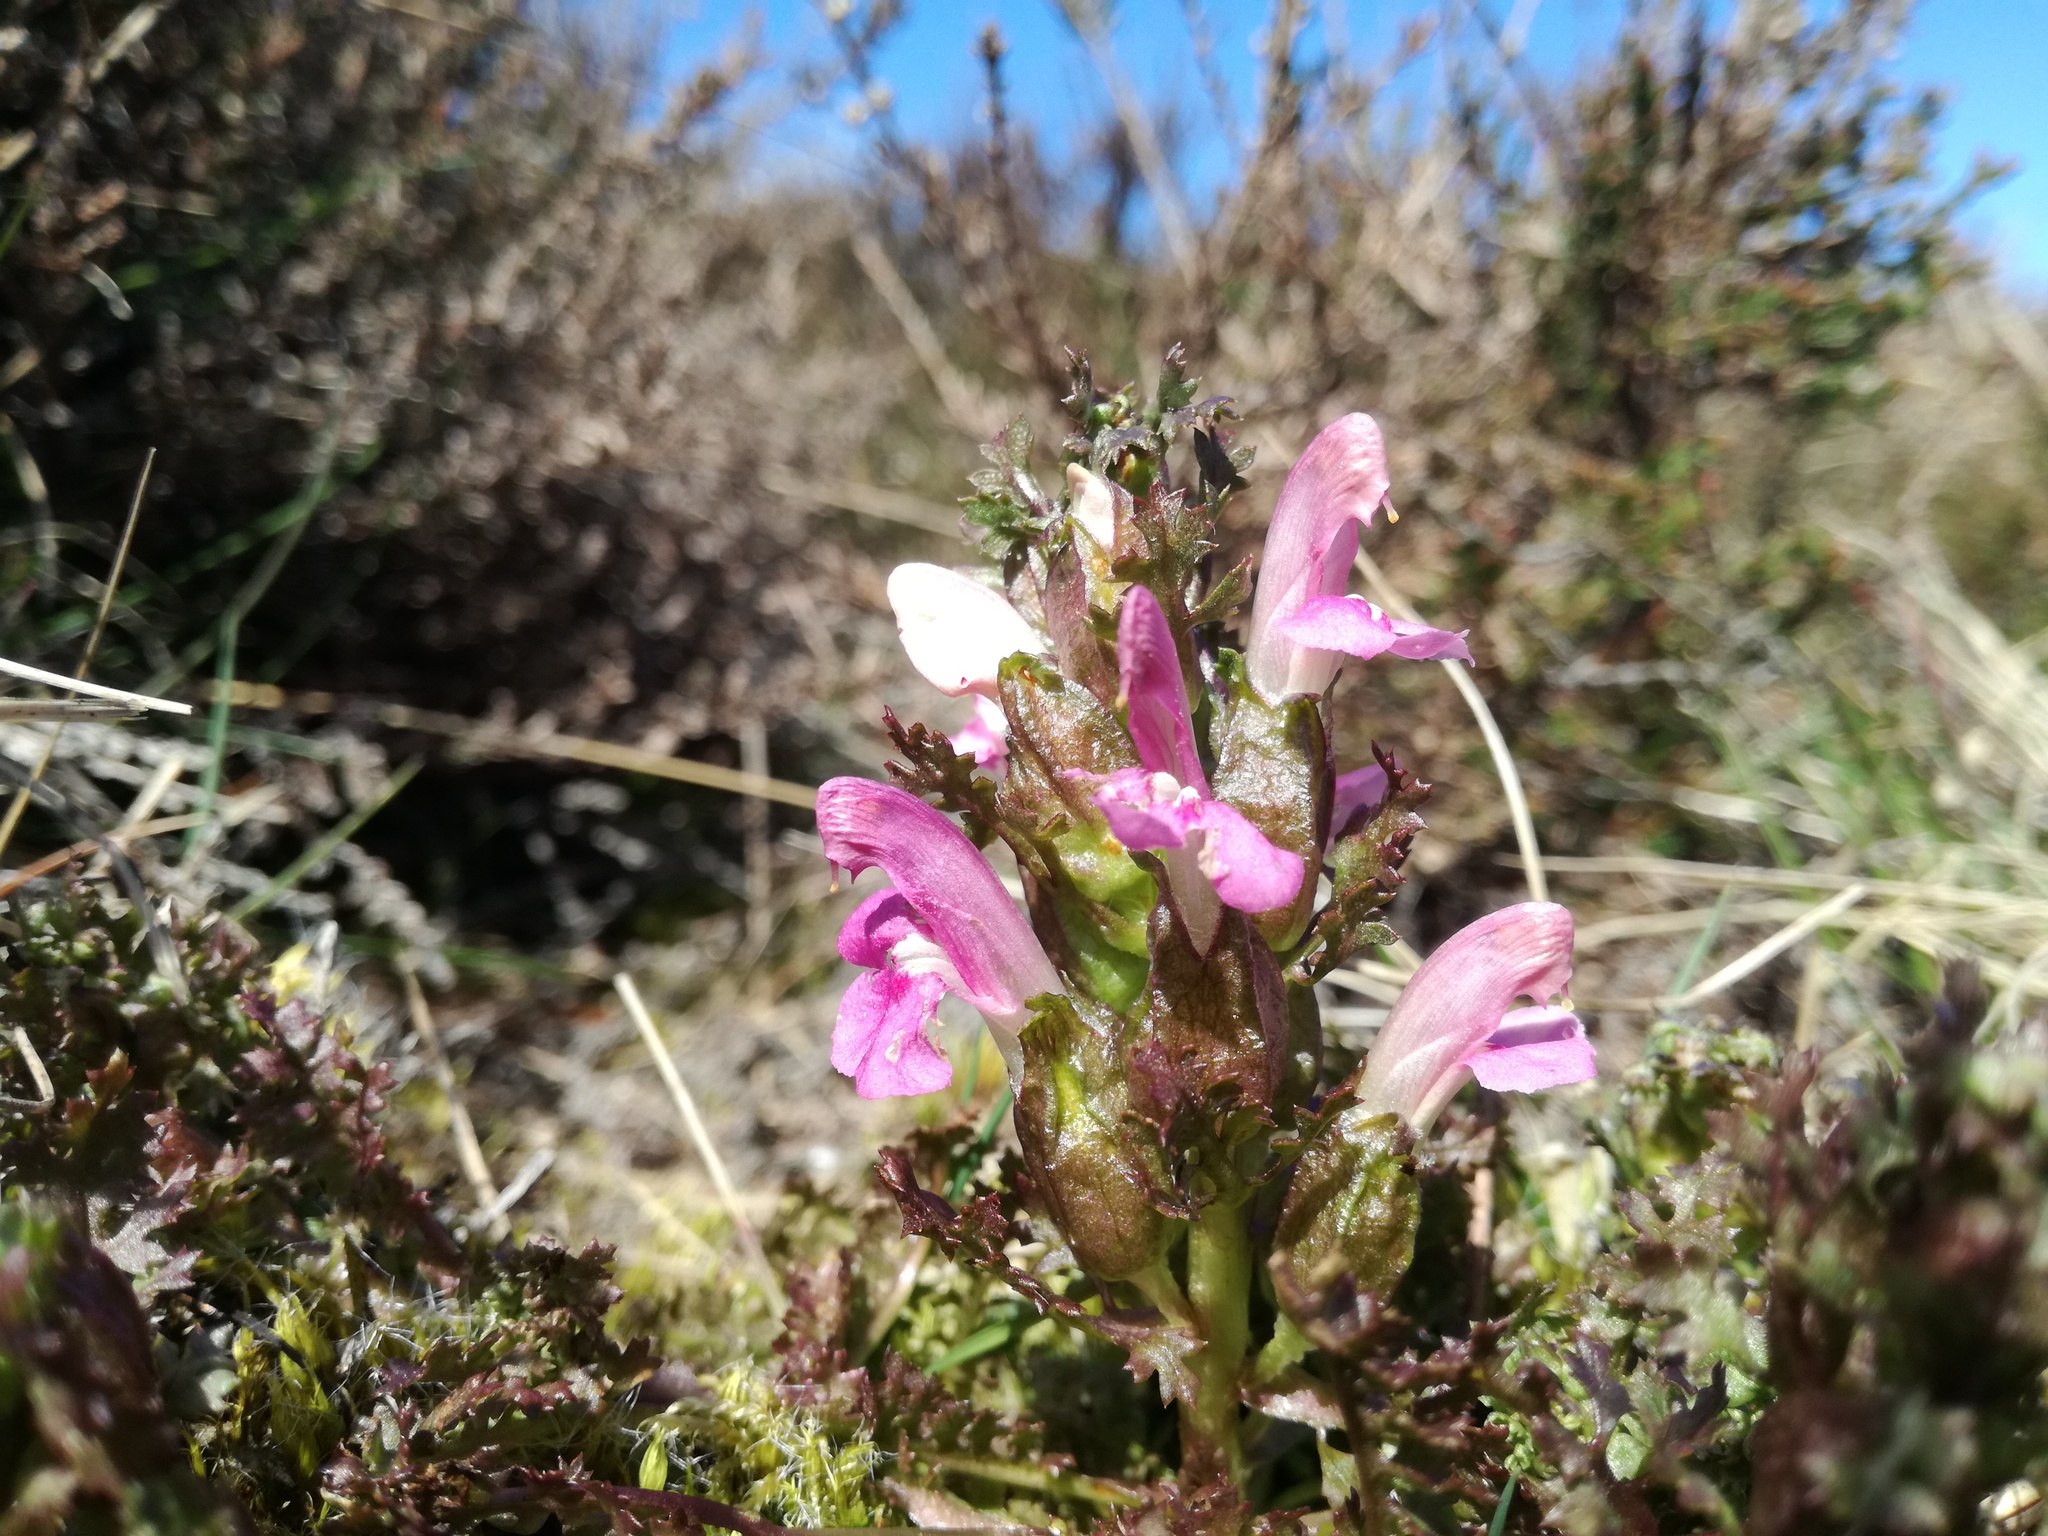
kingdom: Plantae
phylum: Tracheophyta
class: Magnoliopsida
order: Lamiales
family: Orobanchaceae
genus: Pedicularis
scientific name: Pedicularis sylvatica
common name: Lousewort
